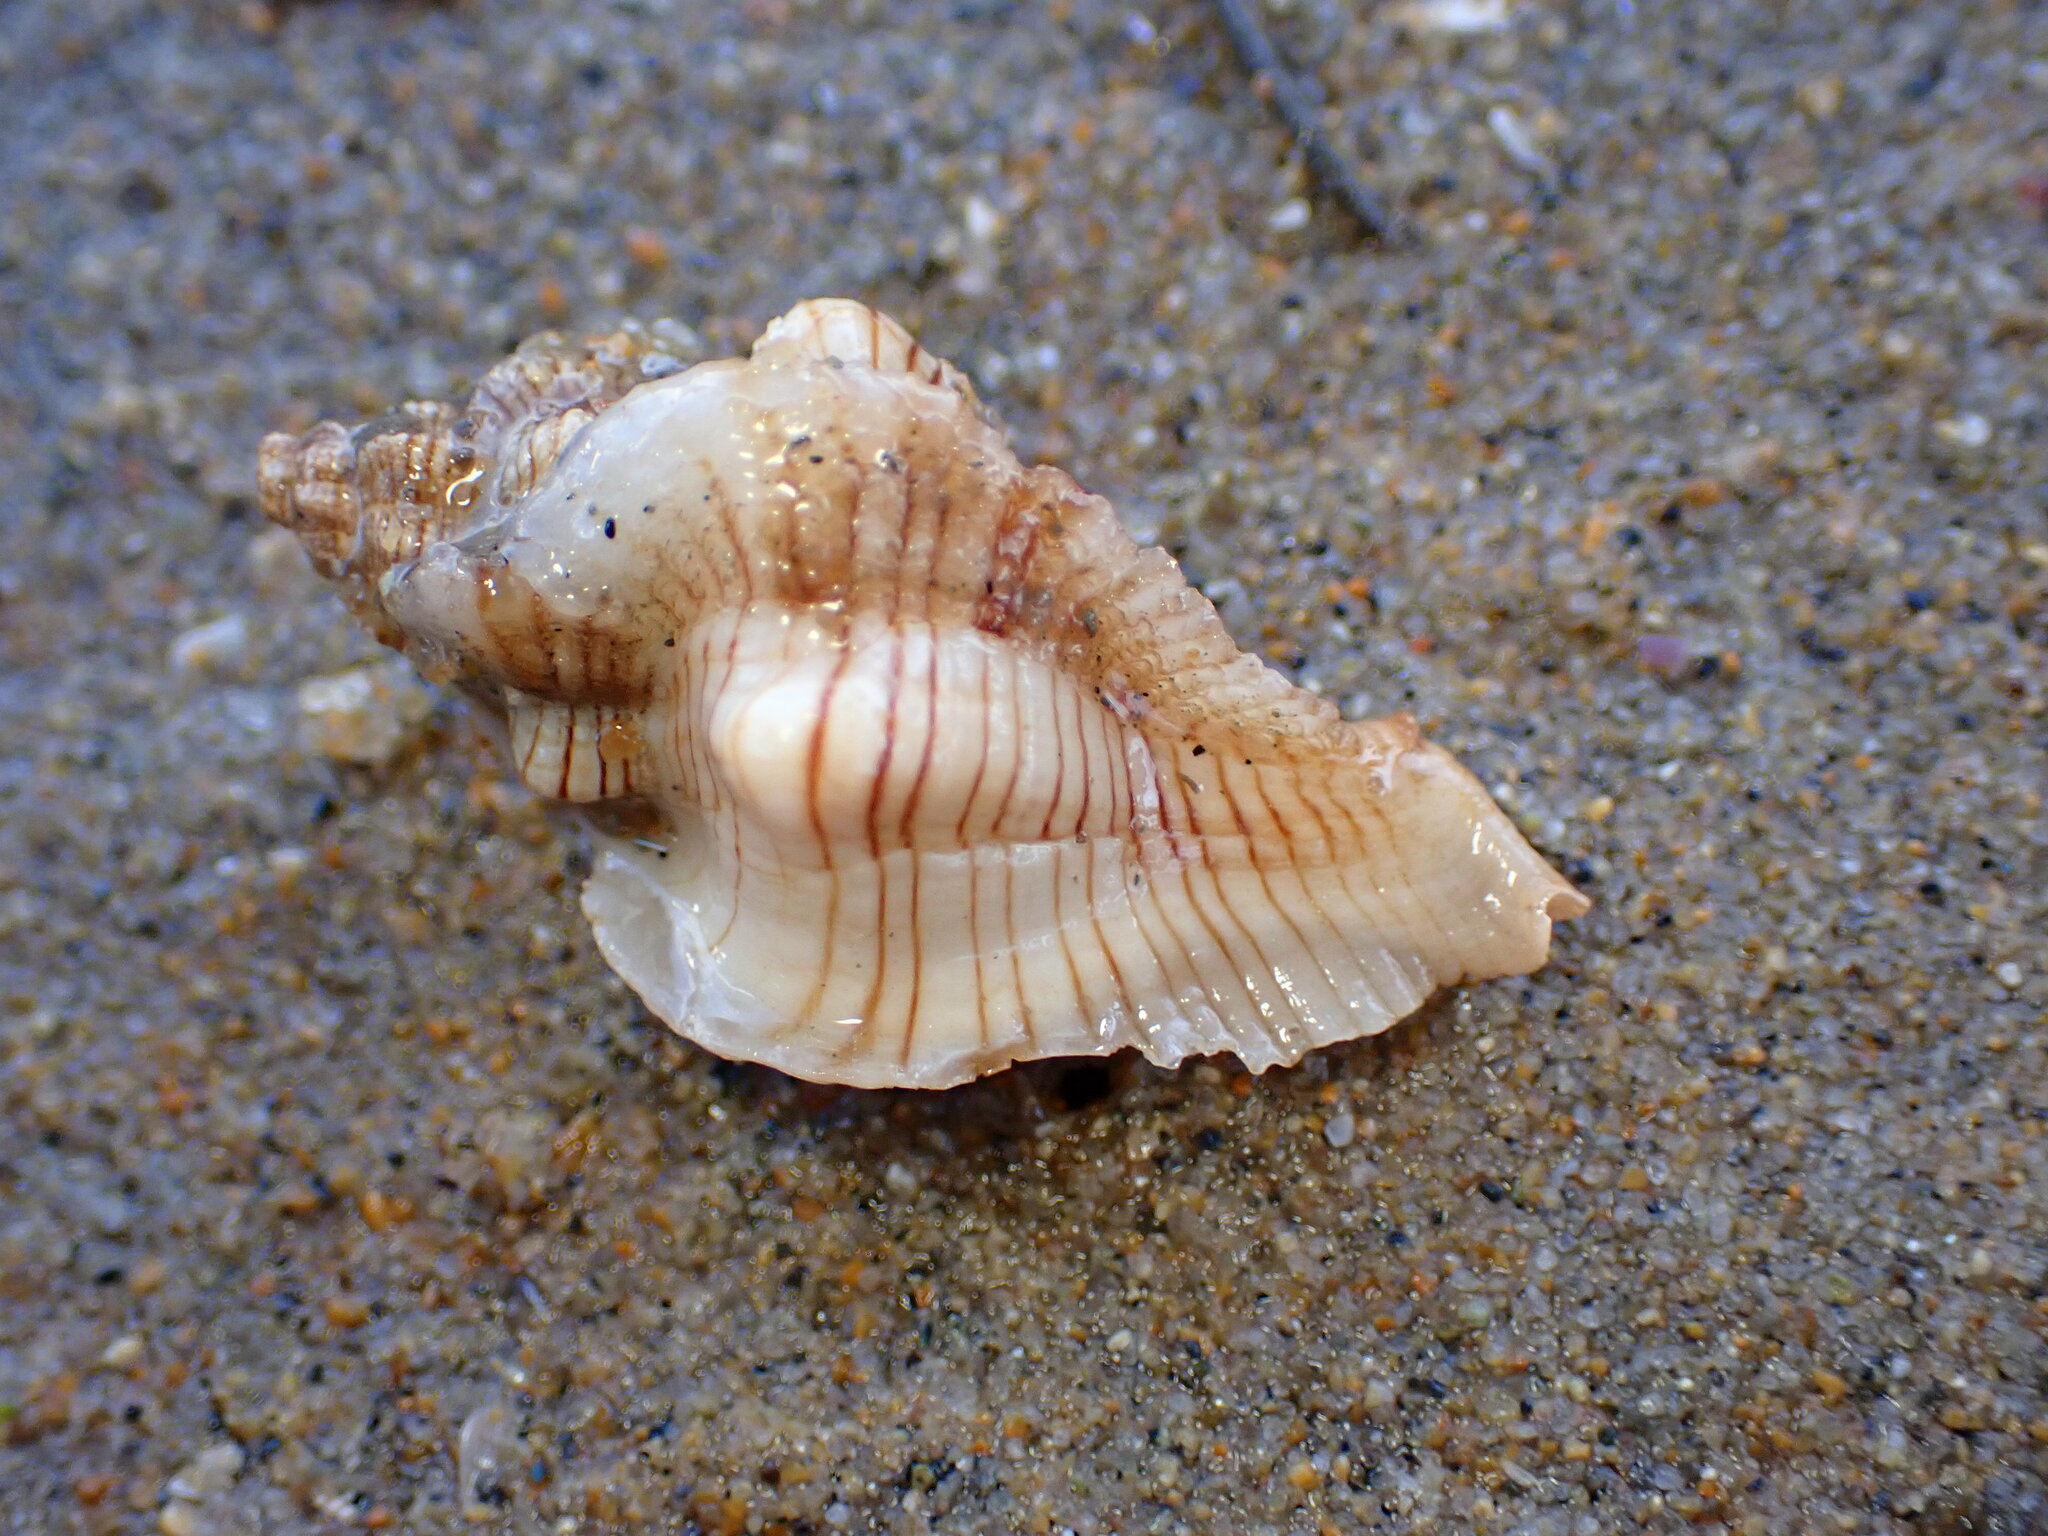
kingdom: Animalia
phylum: Mollusca
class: Gastropoda
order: Neogastropoda
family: Muricidae
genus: Pteropurpura
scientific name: Pteropurpura festiva
